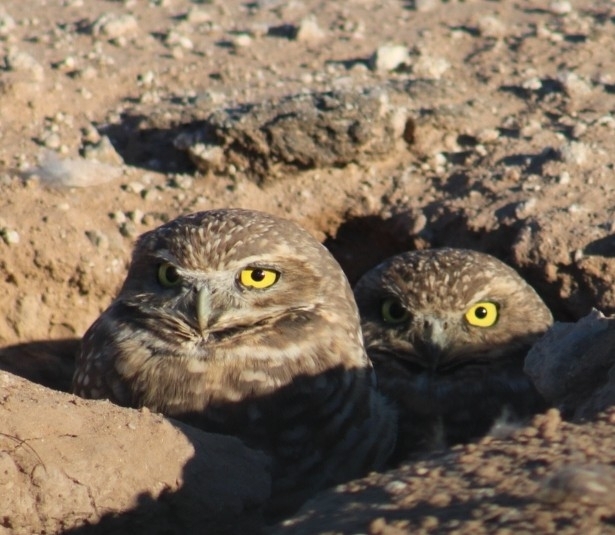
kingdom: Animalia
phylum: Chordata
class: Aves
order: Strigiformes
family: Strigidae
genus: Athene
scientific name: Athene cunicularia
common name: Burrowing owl
